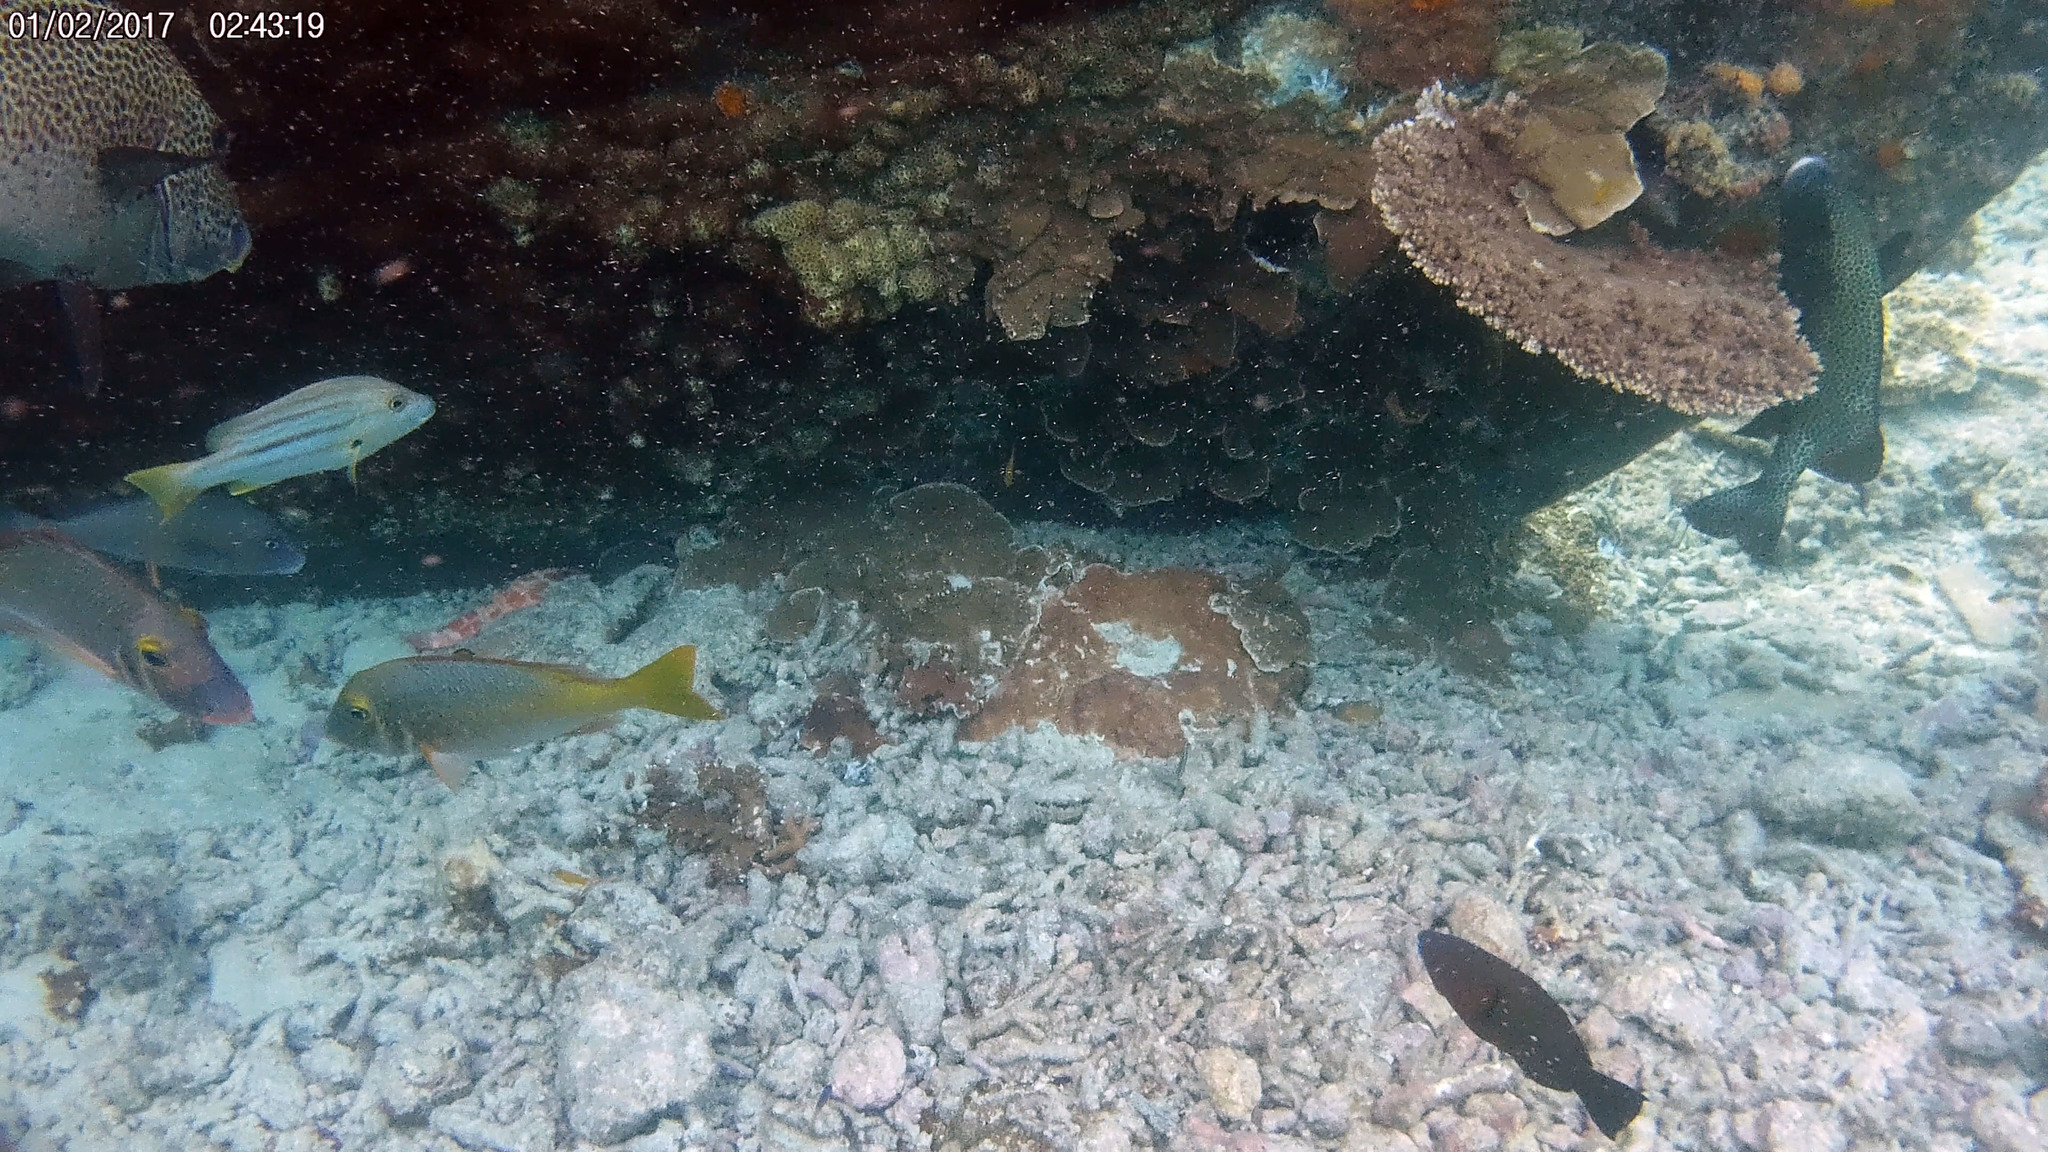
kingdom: Animalia
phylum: Chordata
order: Perciformes
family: Lutjanidae
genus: Lutjanus
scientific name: Lutjanus carponotatus
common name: Spanish flag
